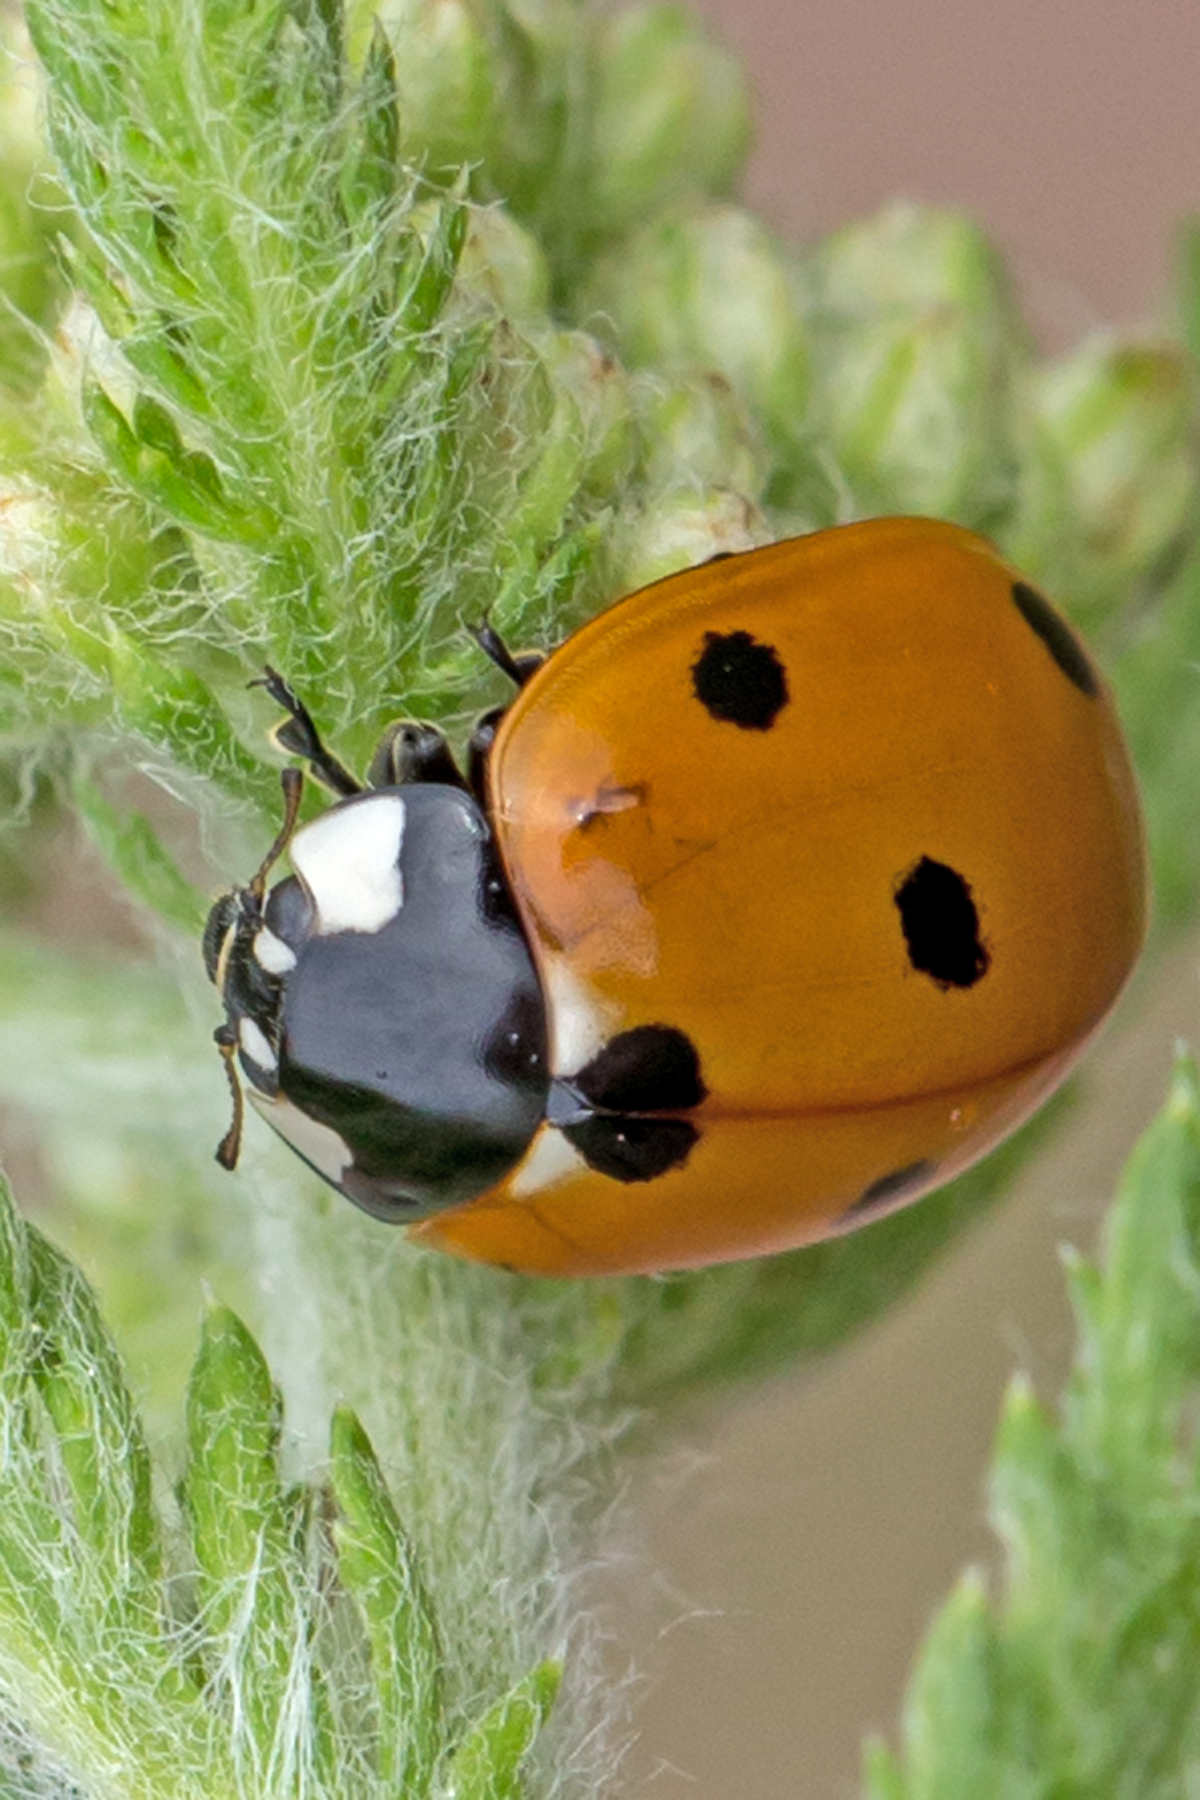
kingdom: Animalia
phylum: Arthropoda
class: Insecta
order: Coleoptera
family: Coccinellidae
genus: Coccinella
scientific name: Coccinella septempunctata
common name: Sevenspotted lady beetle
